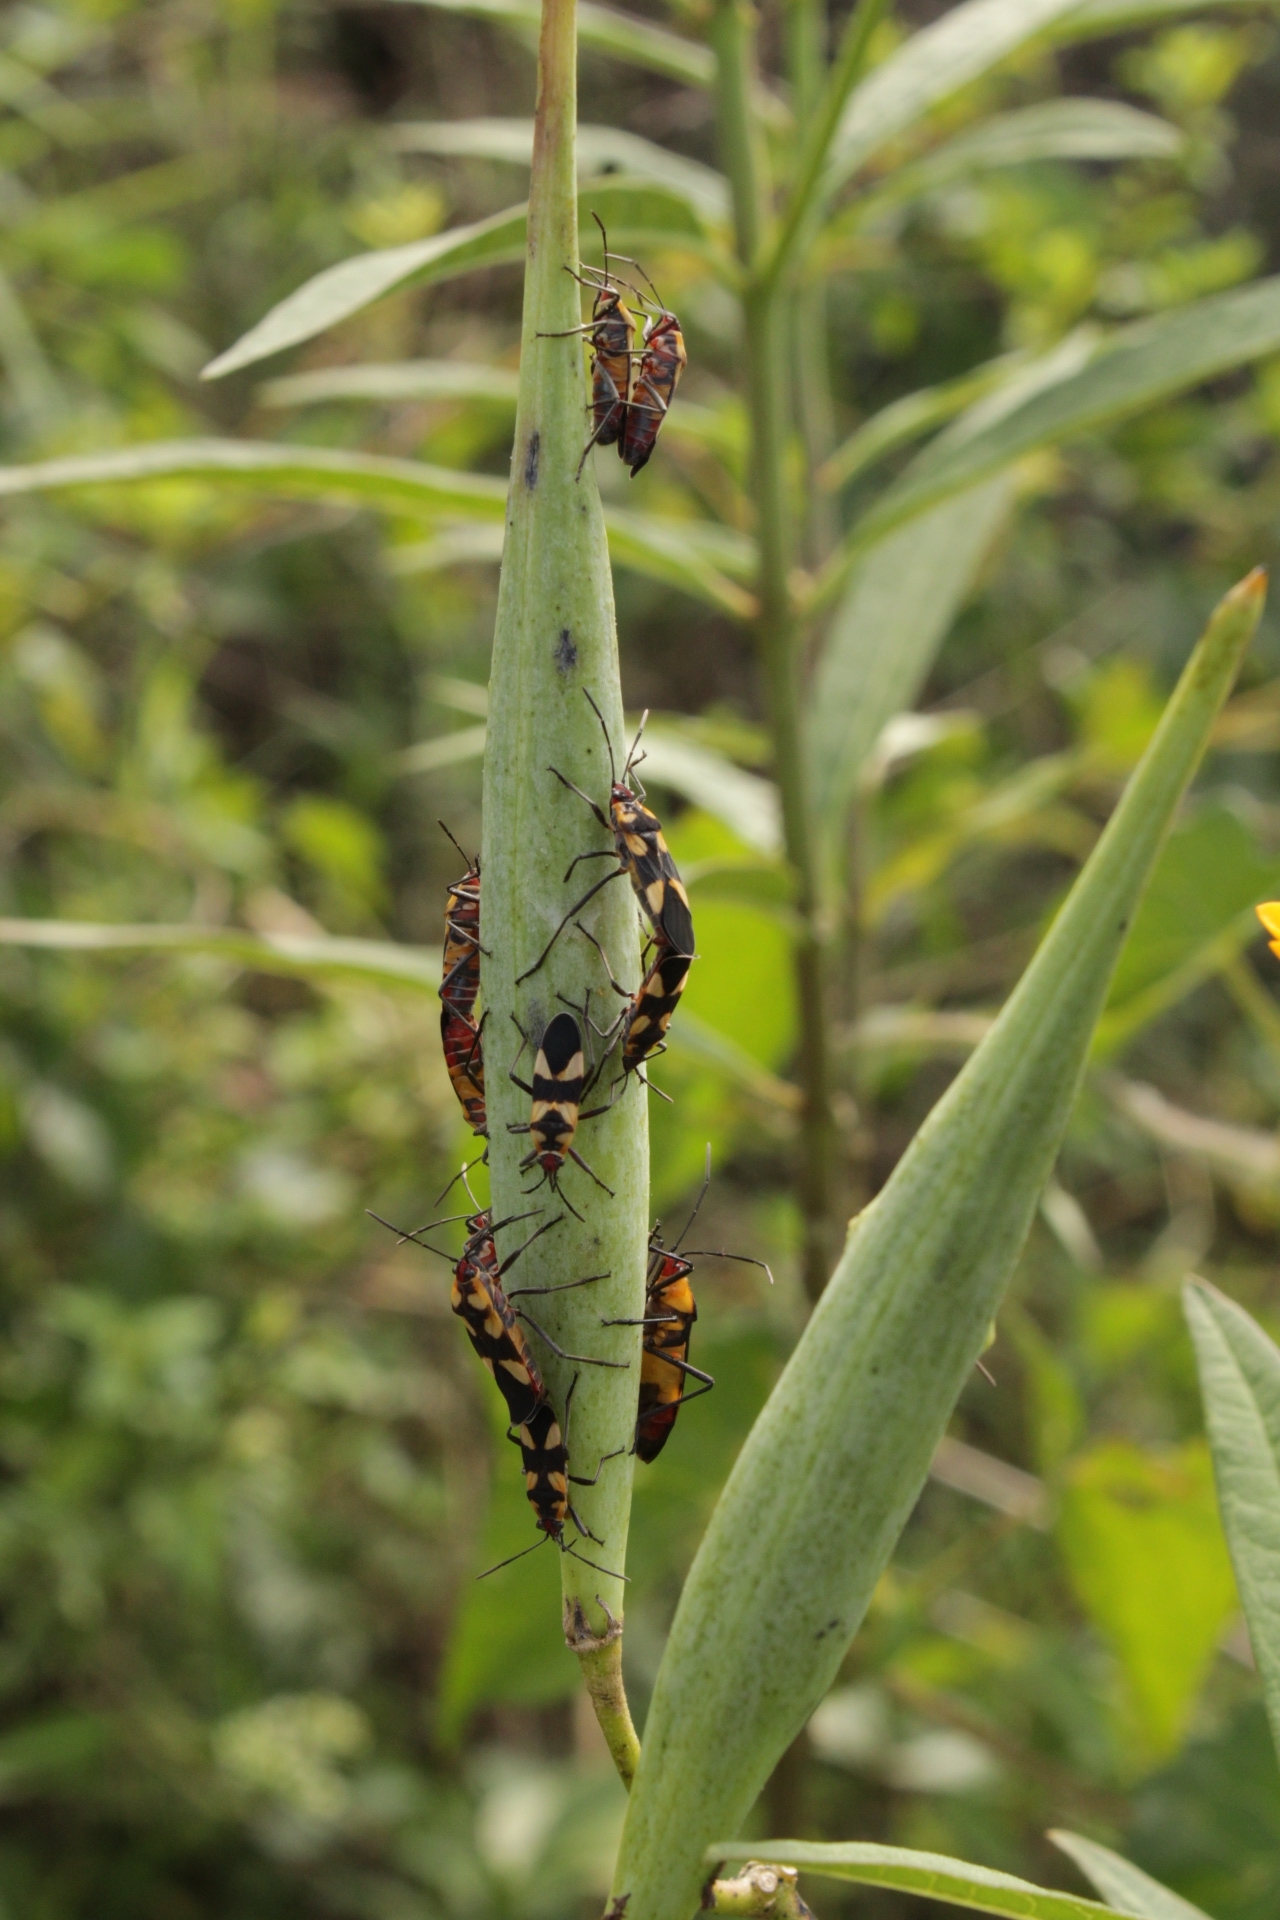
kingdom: Animalia
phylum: Arthropoda
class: Insecta
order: Hemiptera
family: Lygaeidae
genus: Oncopeltus
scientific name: Oncopeltus cingulifer
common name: Lygaeid bug
